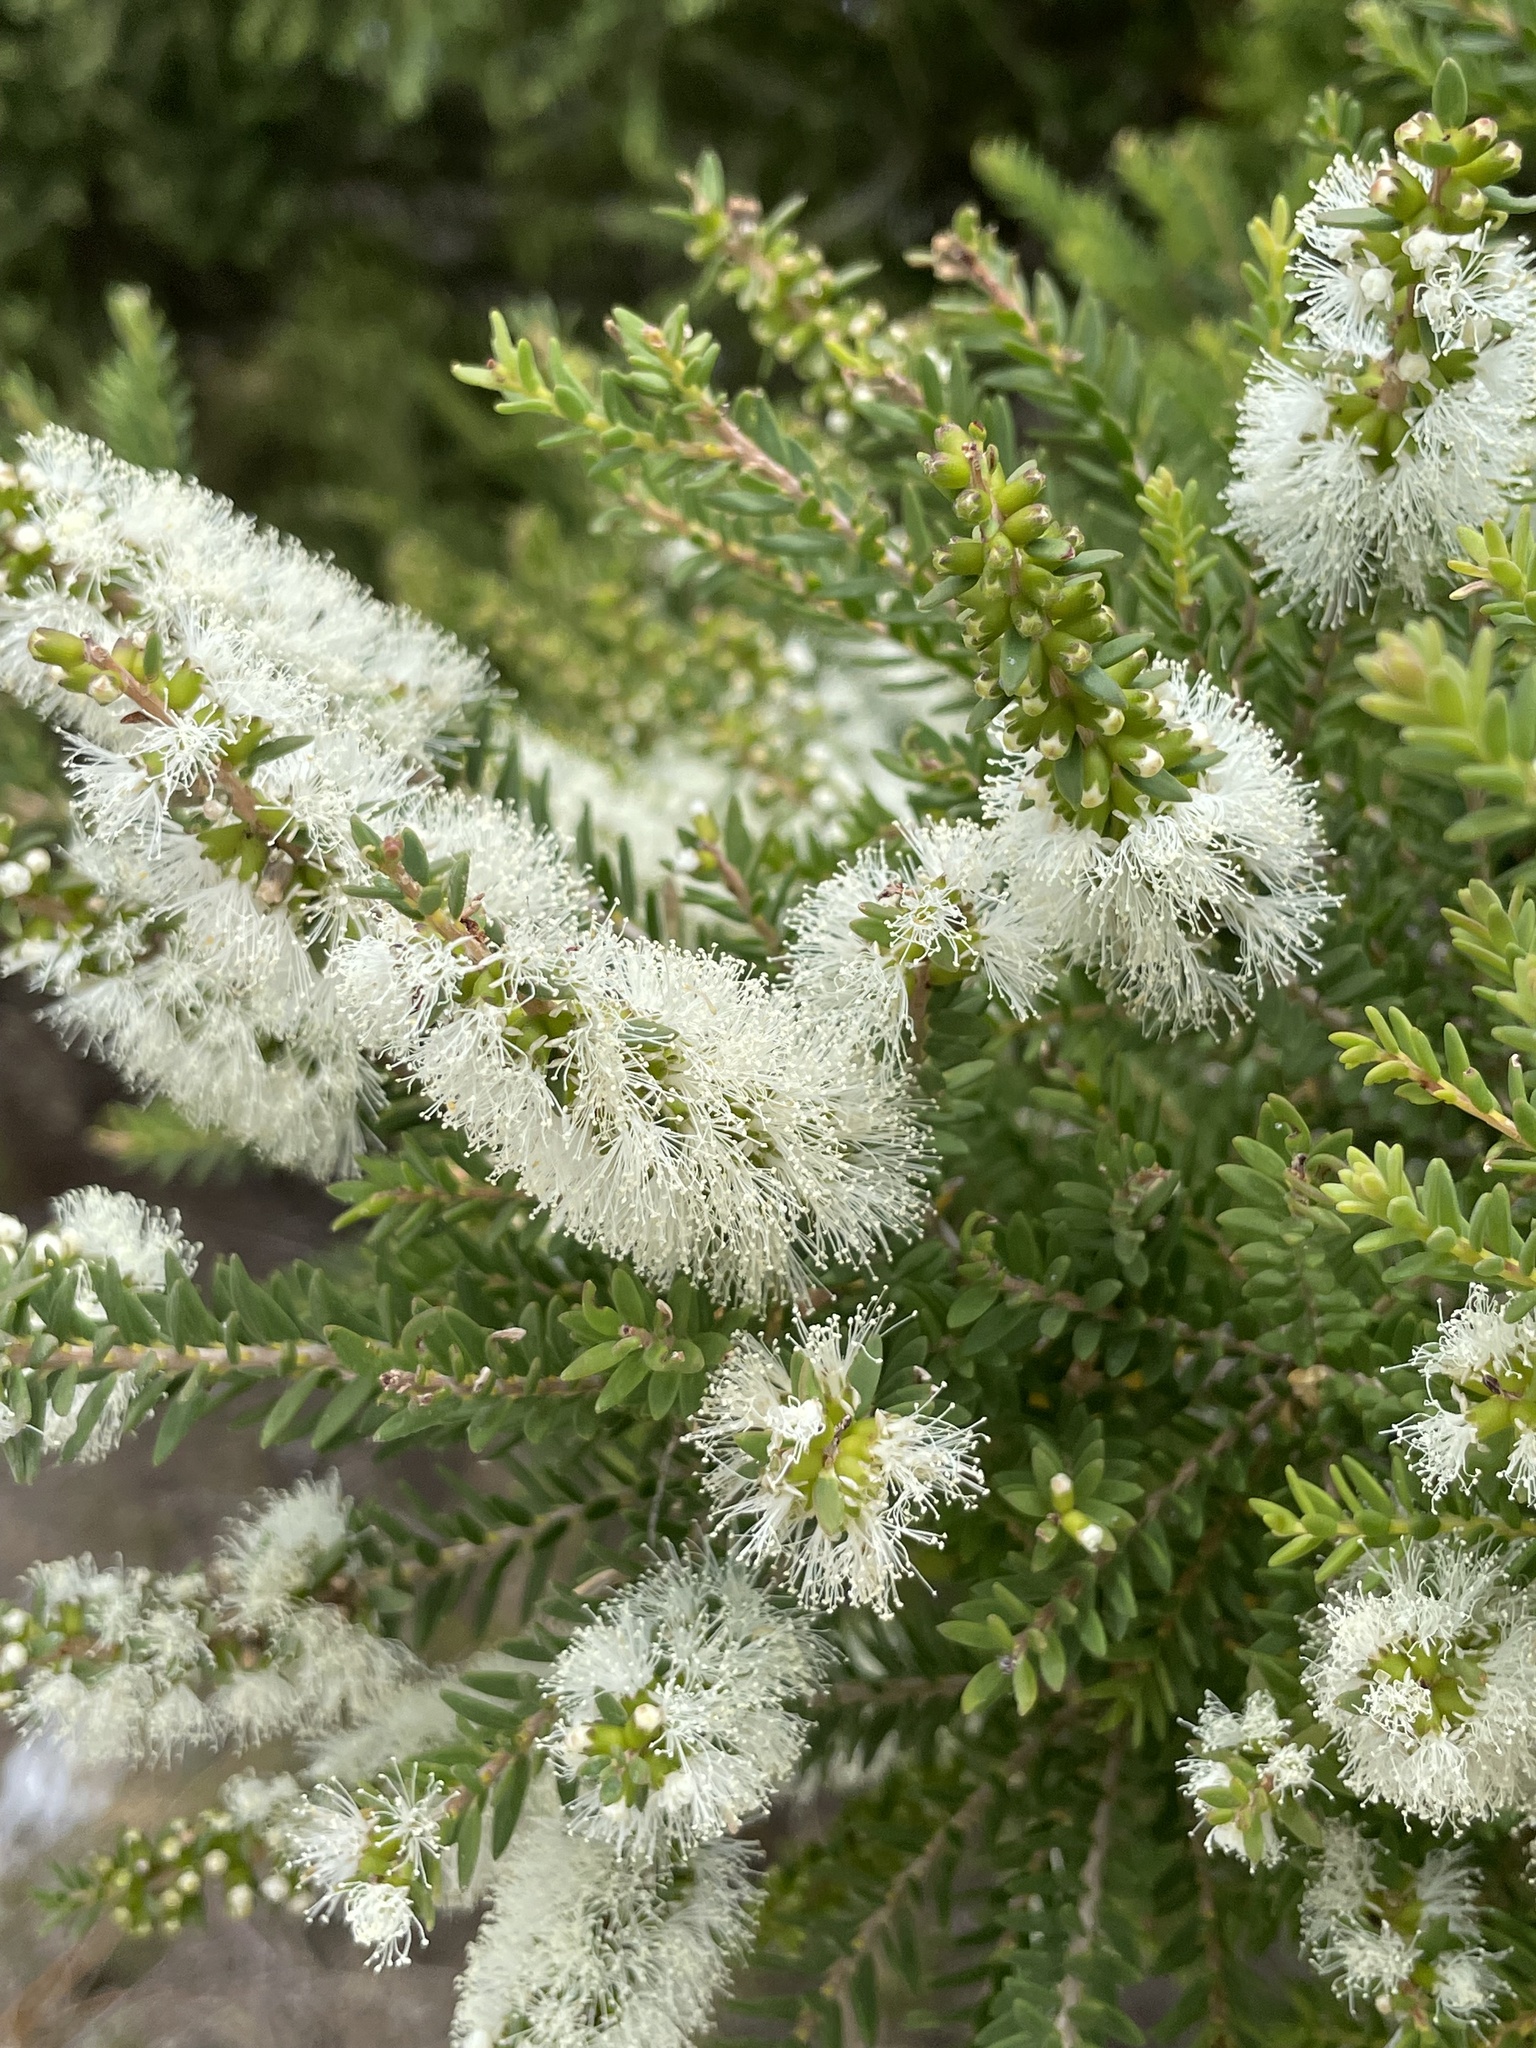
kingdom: Plantae
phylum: Tracheophyta
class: Magnoliopsida
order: Myrtales
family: Myrtaceae
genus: Melaleuca
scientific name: Melaleuca lanceolata
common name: Rottnest island teatree
